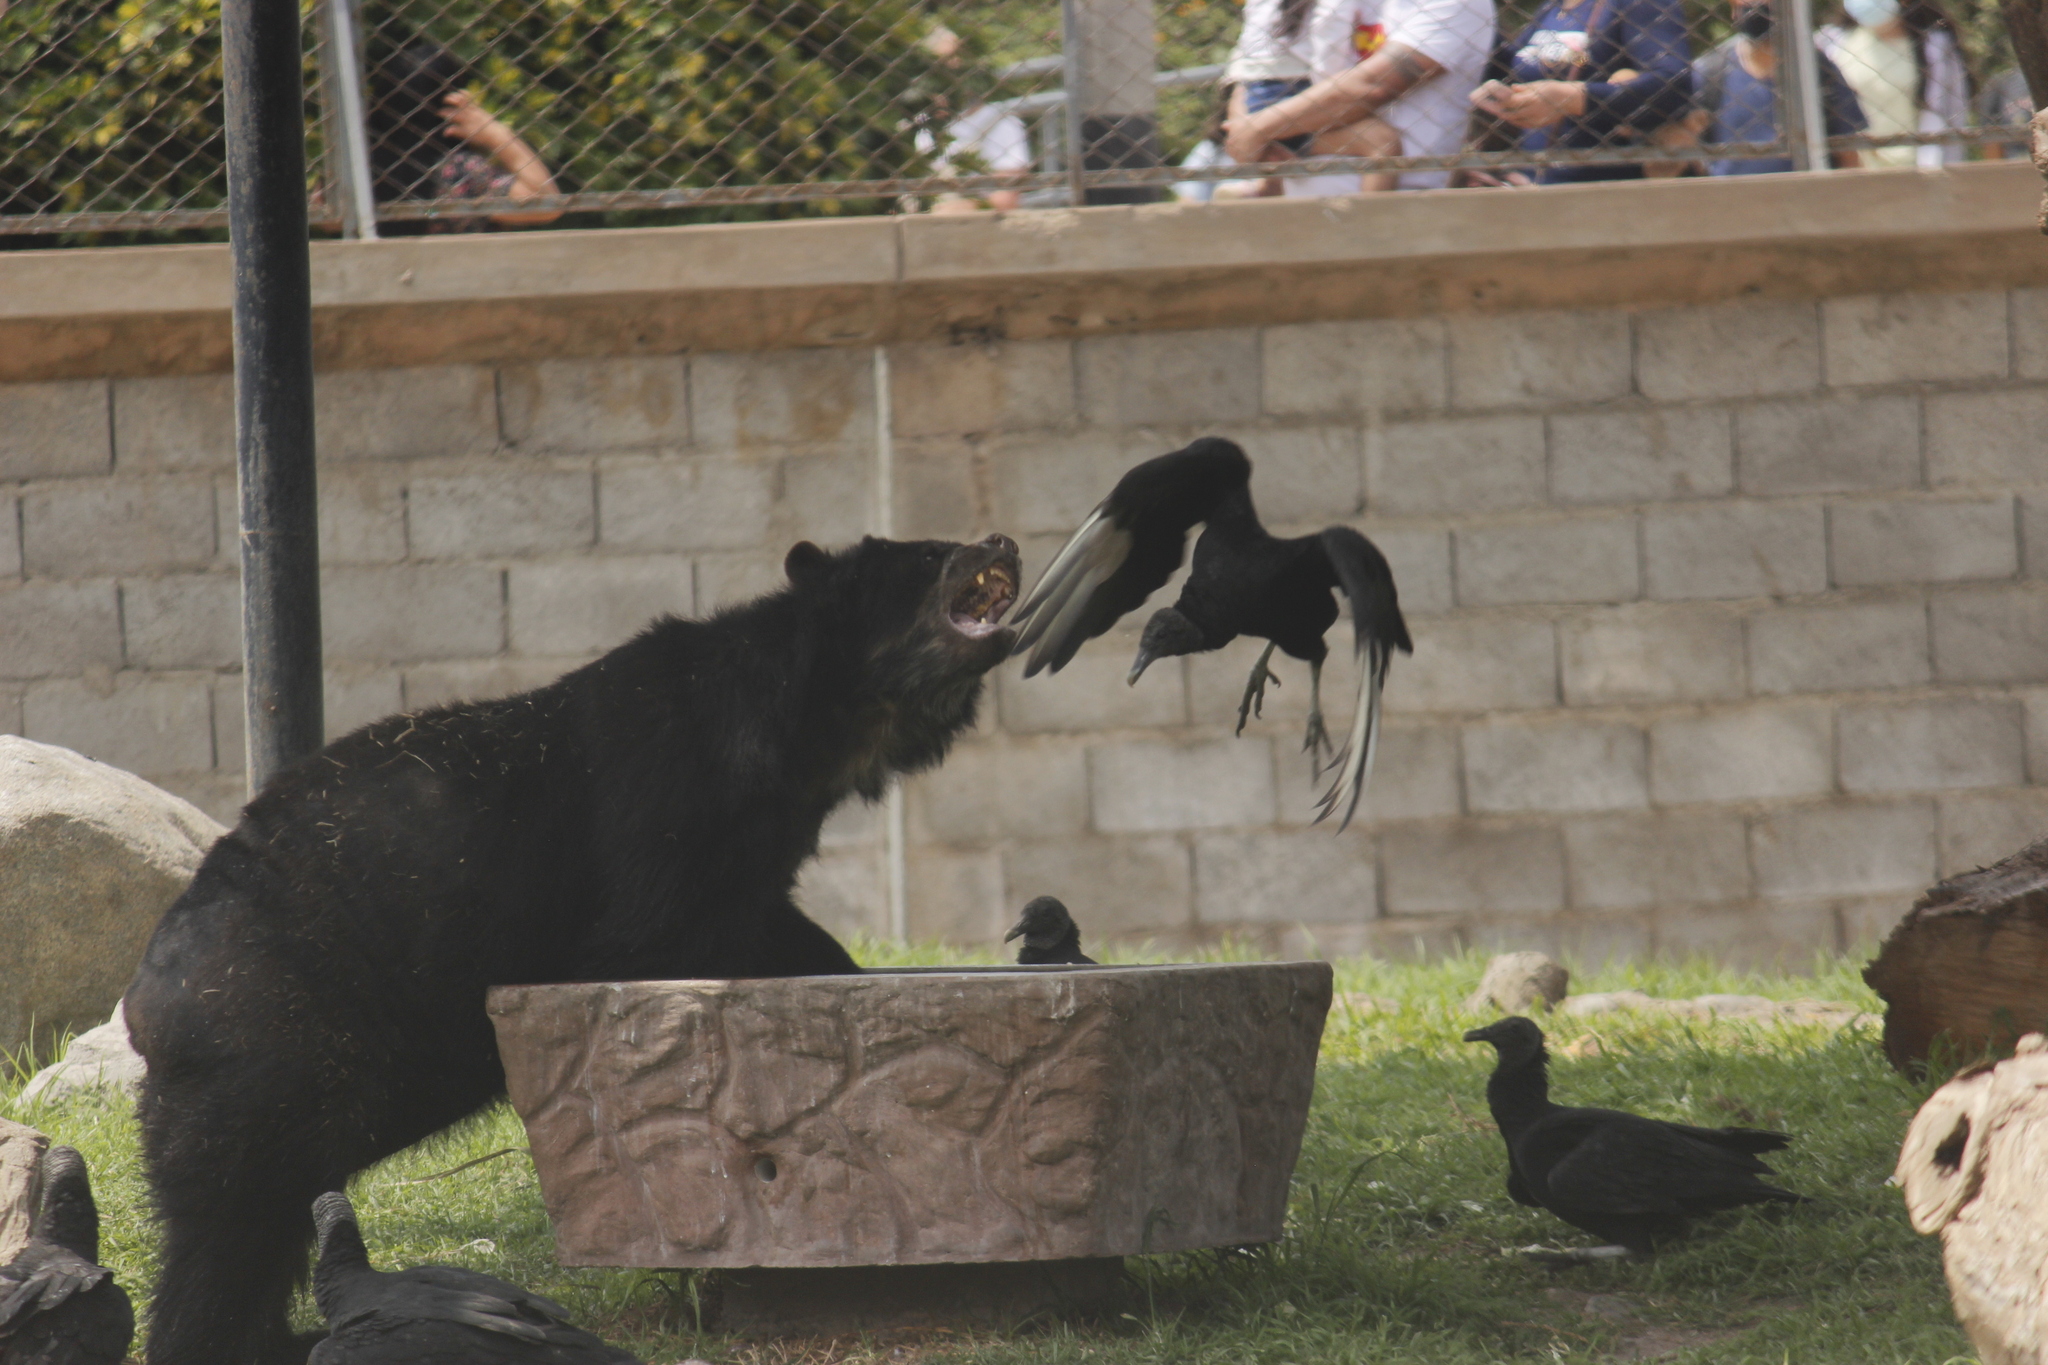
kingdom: Animalia
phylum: Chordata
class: Aves
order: Accipitriformes
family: Cathartidae
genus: Coragyps
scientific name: Coragyps atratus
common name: Black vulture
